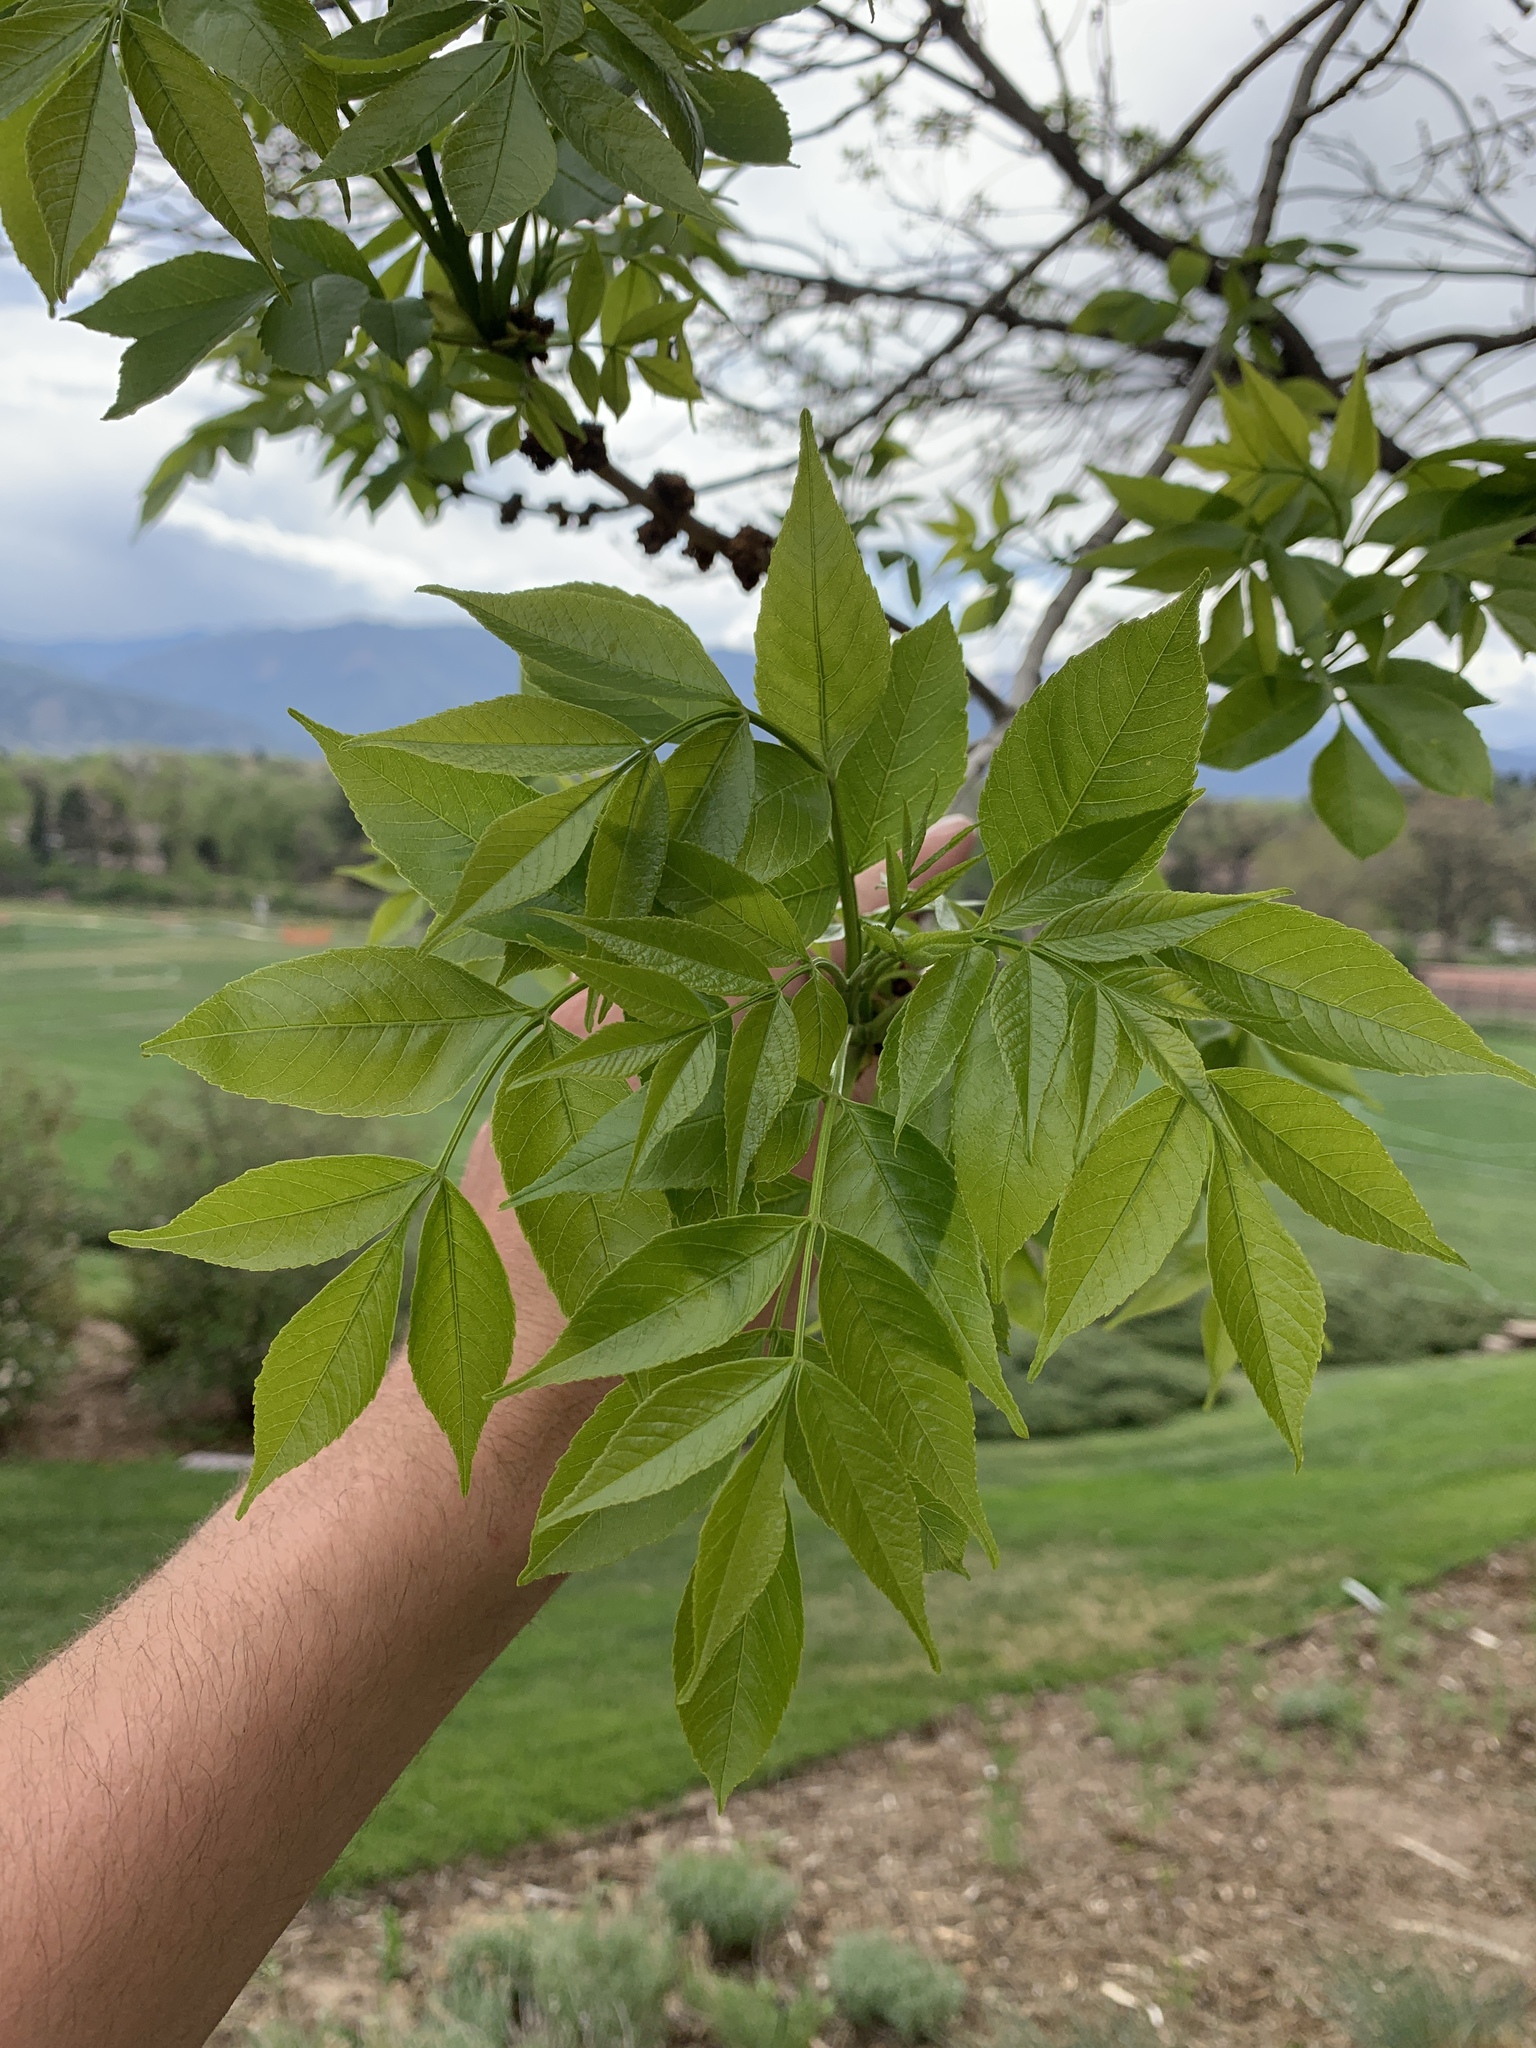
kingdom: Plantae
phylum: Tracheophyta
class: Magnoliopsida
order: Lamiales
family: Oleaceae
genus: Fraxinus
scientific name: Fraxinus pennsylvanica
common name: Green ash
